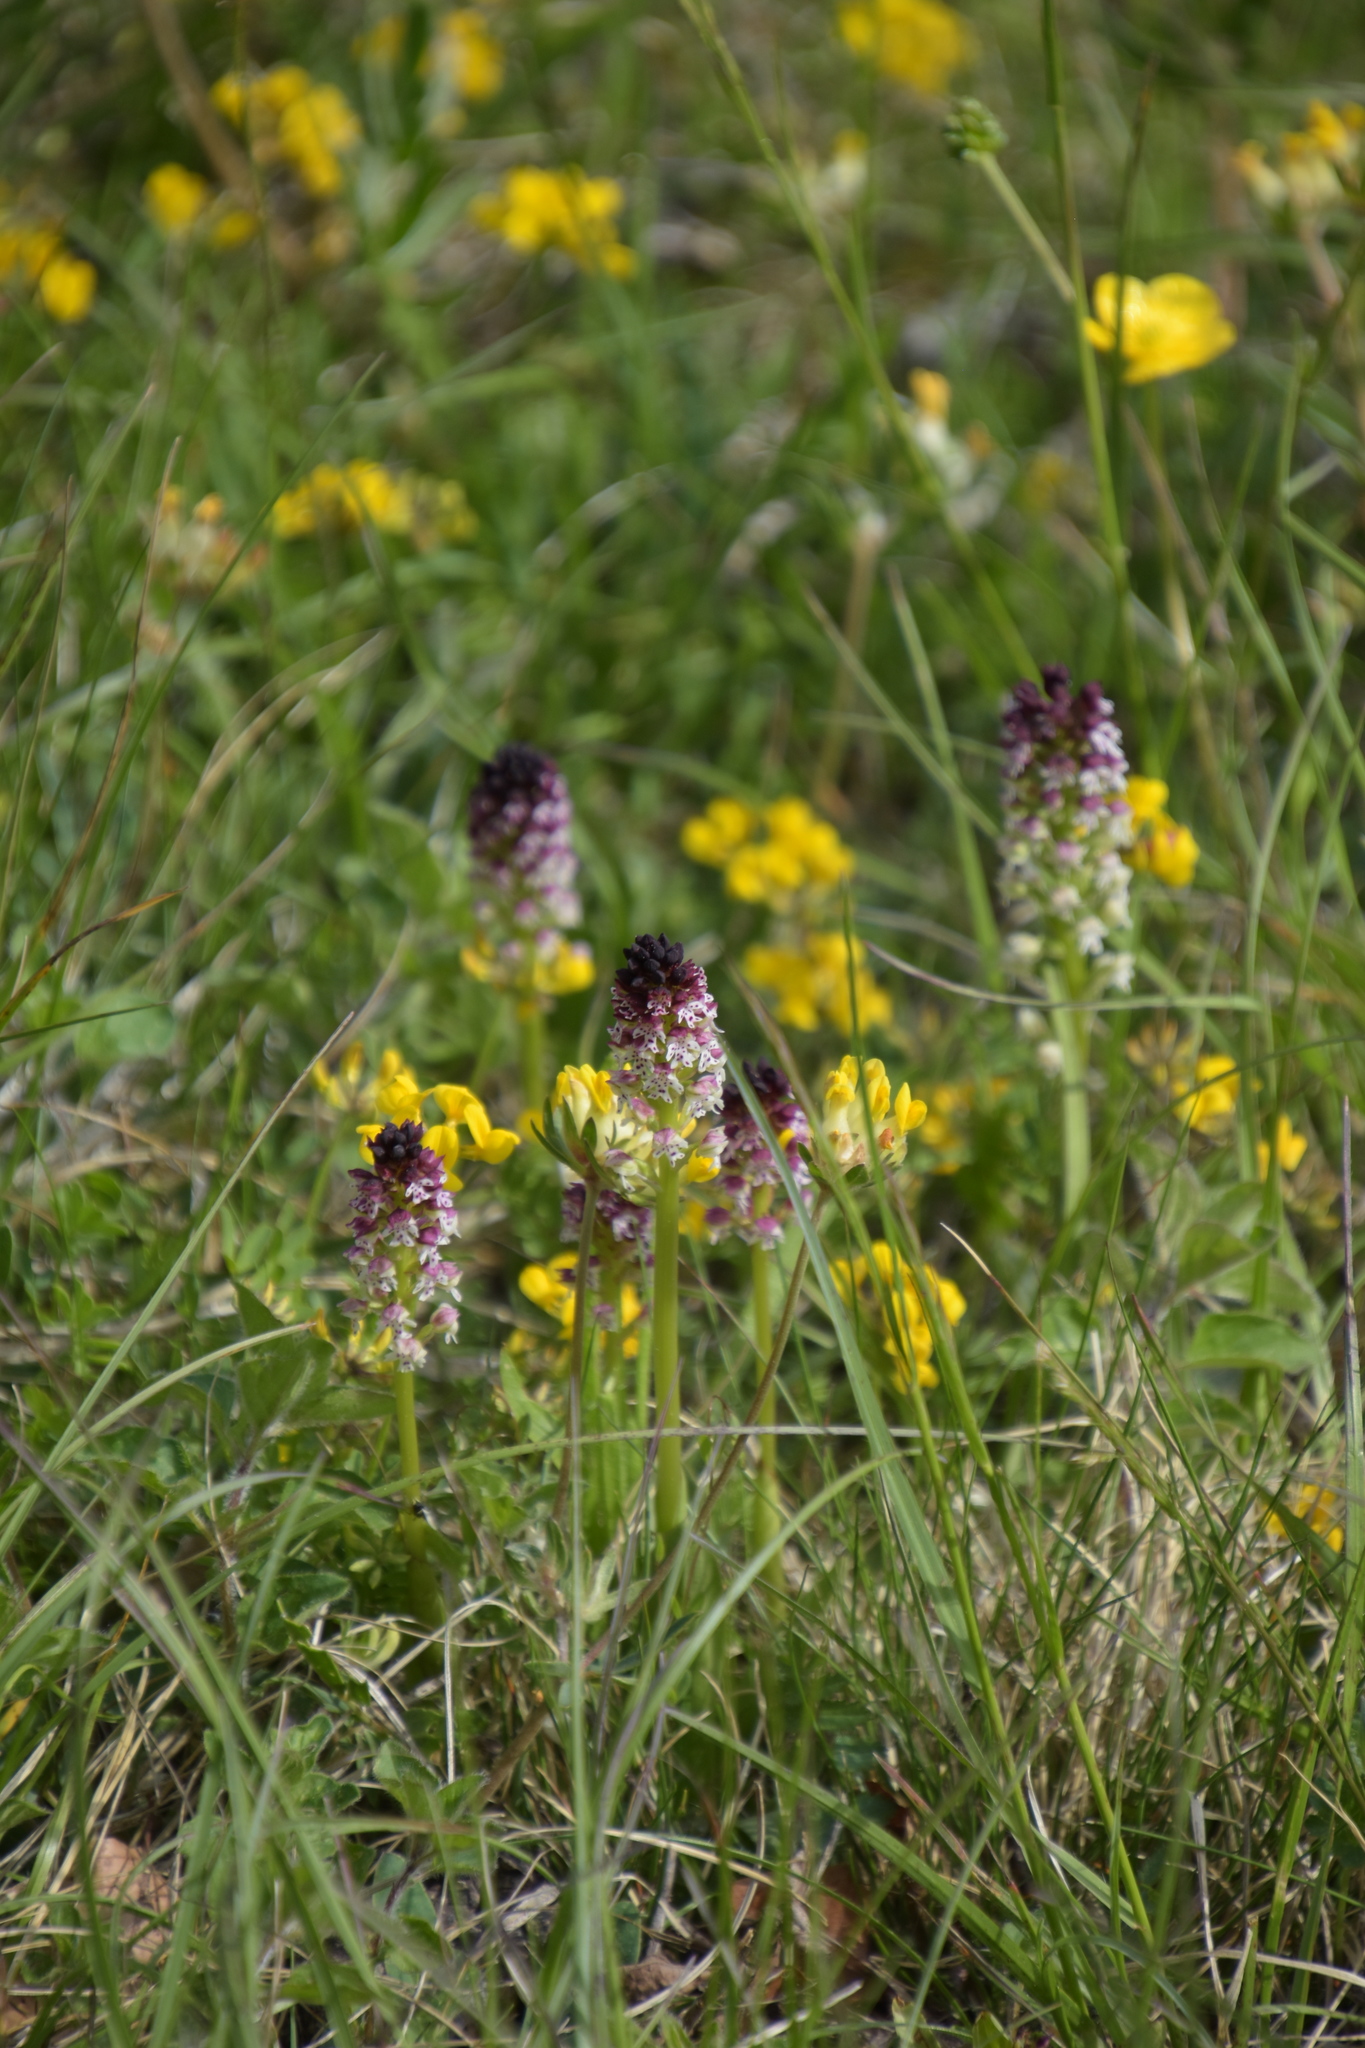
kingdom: Plantae
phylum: Tracheophyta
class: Liliopsida
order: Asparagales
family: Orchidaceae
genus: Neotinea
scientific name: Neotinea ustulata
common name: Burnt orchid
